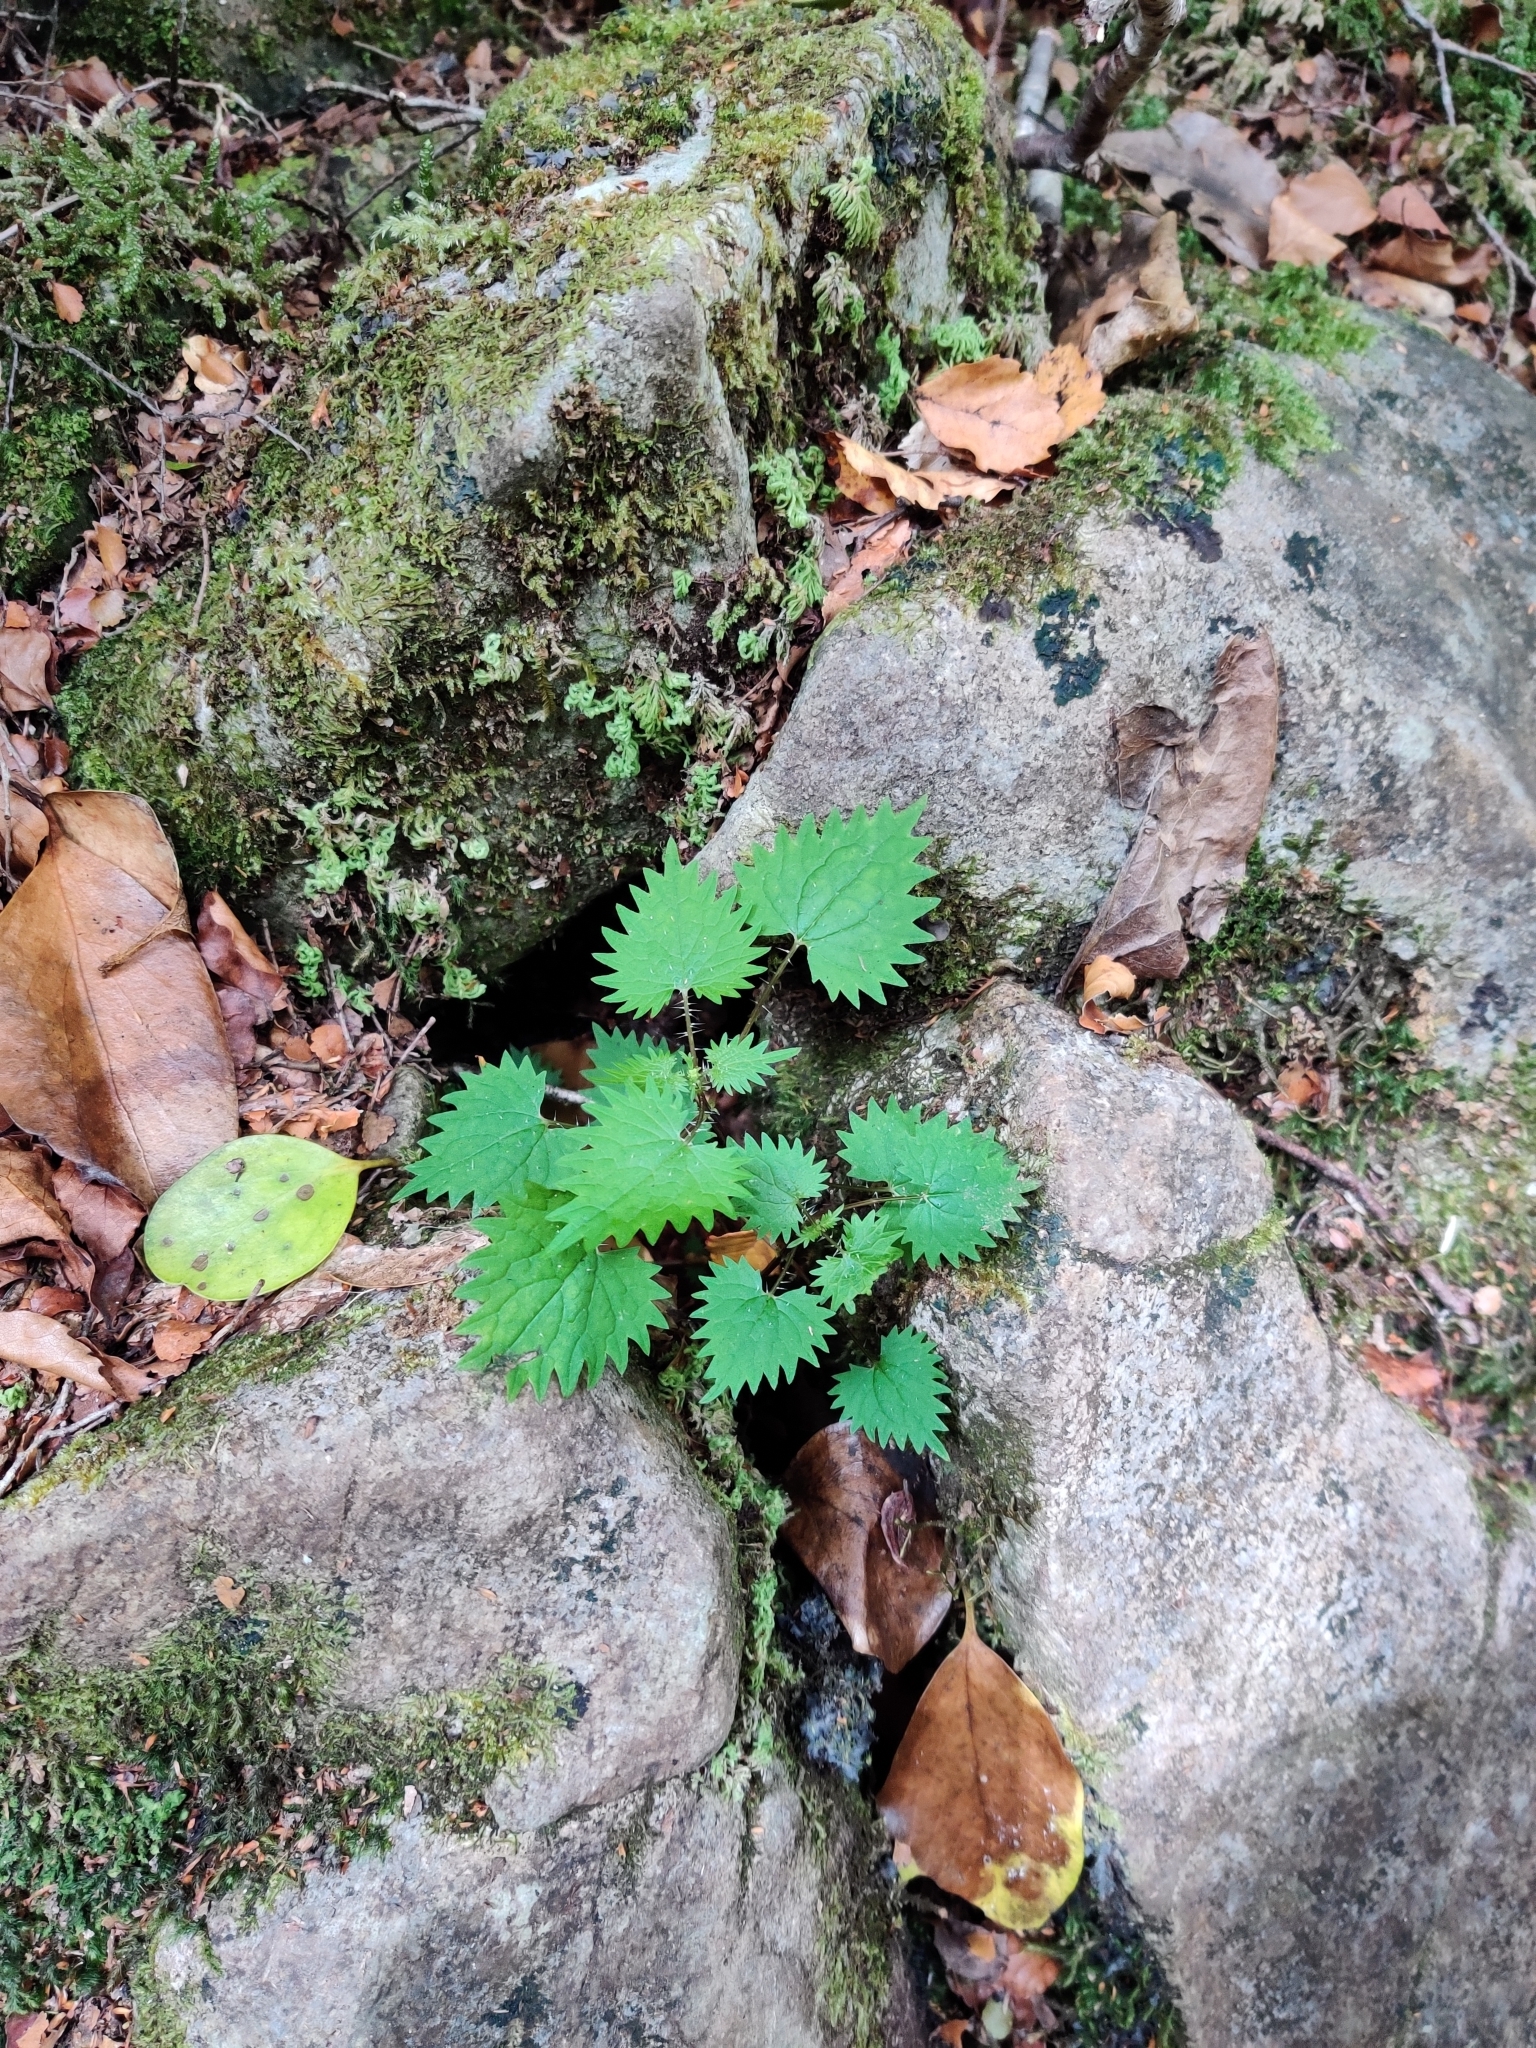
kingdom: Plantae
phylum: Tracheophyta
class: Magnoliopsida
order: Rosales
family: Urticaceae
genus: Urtica
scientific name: Urtica sykesii
